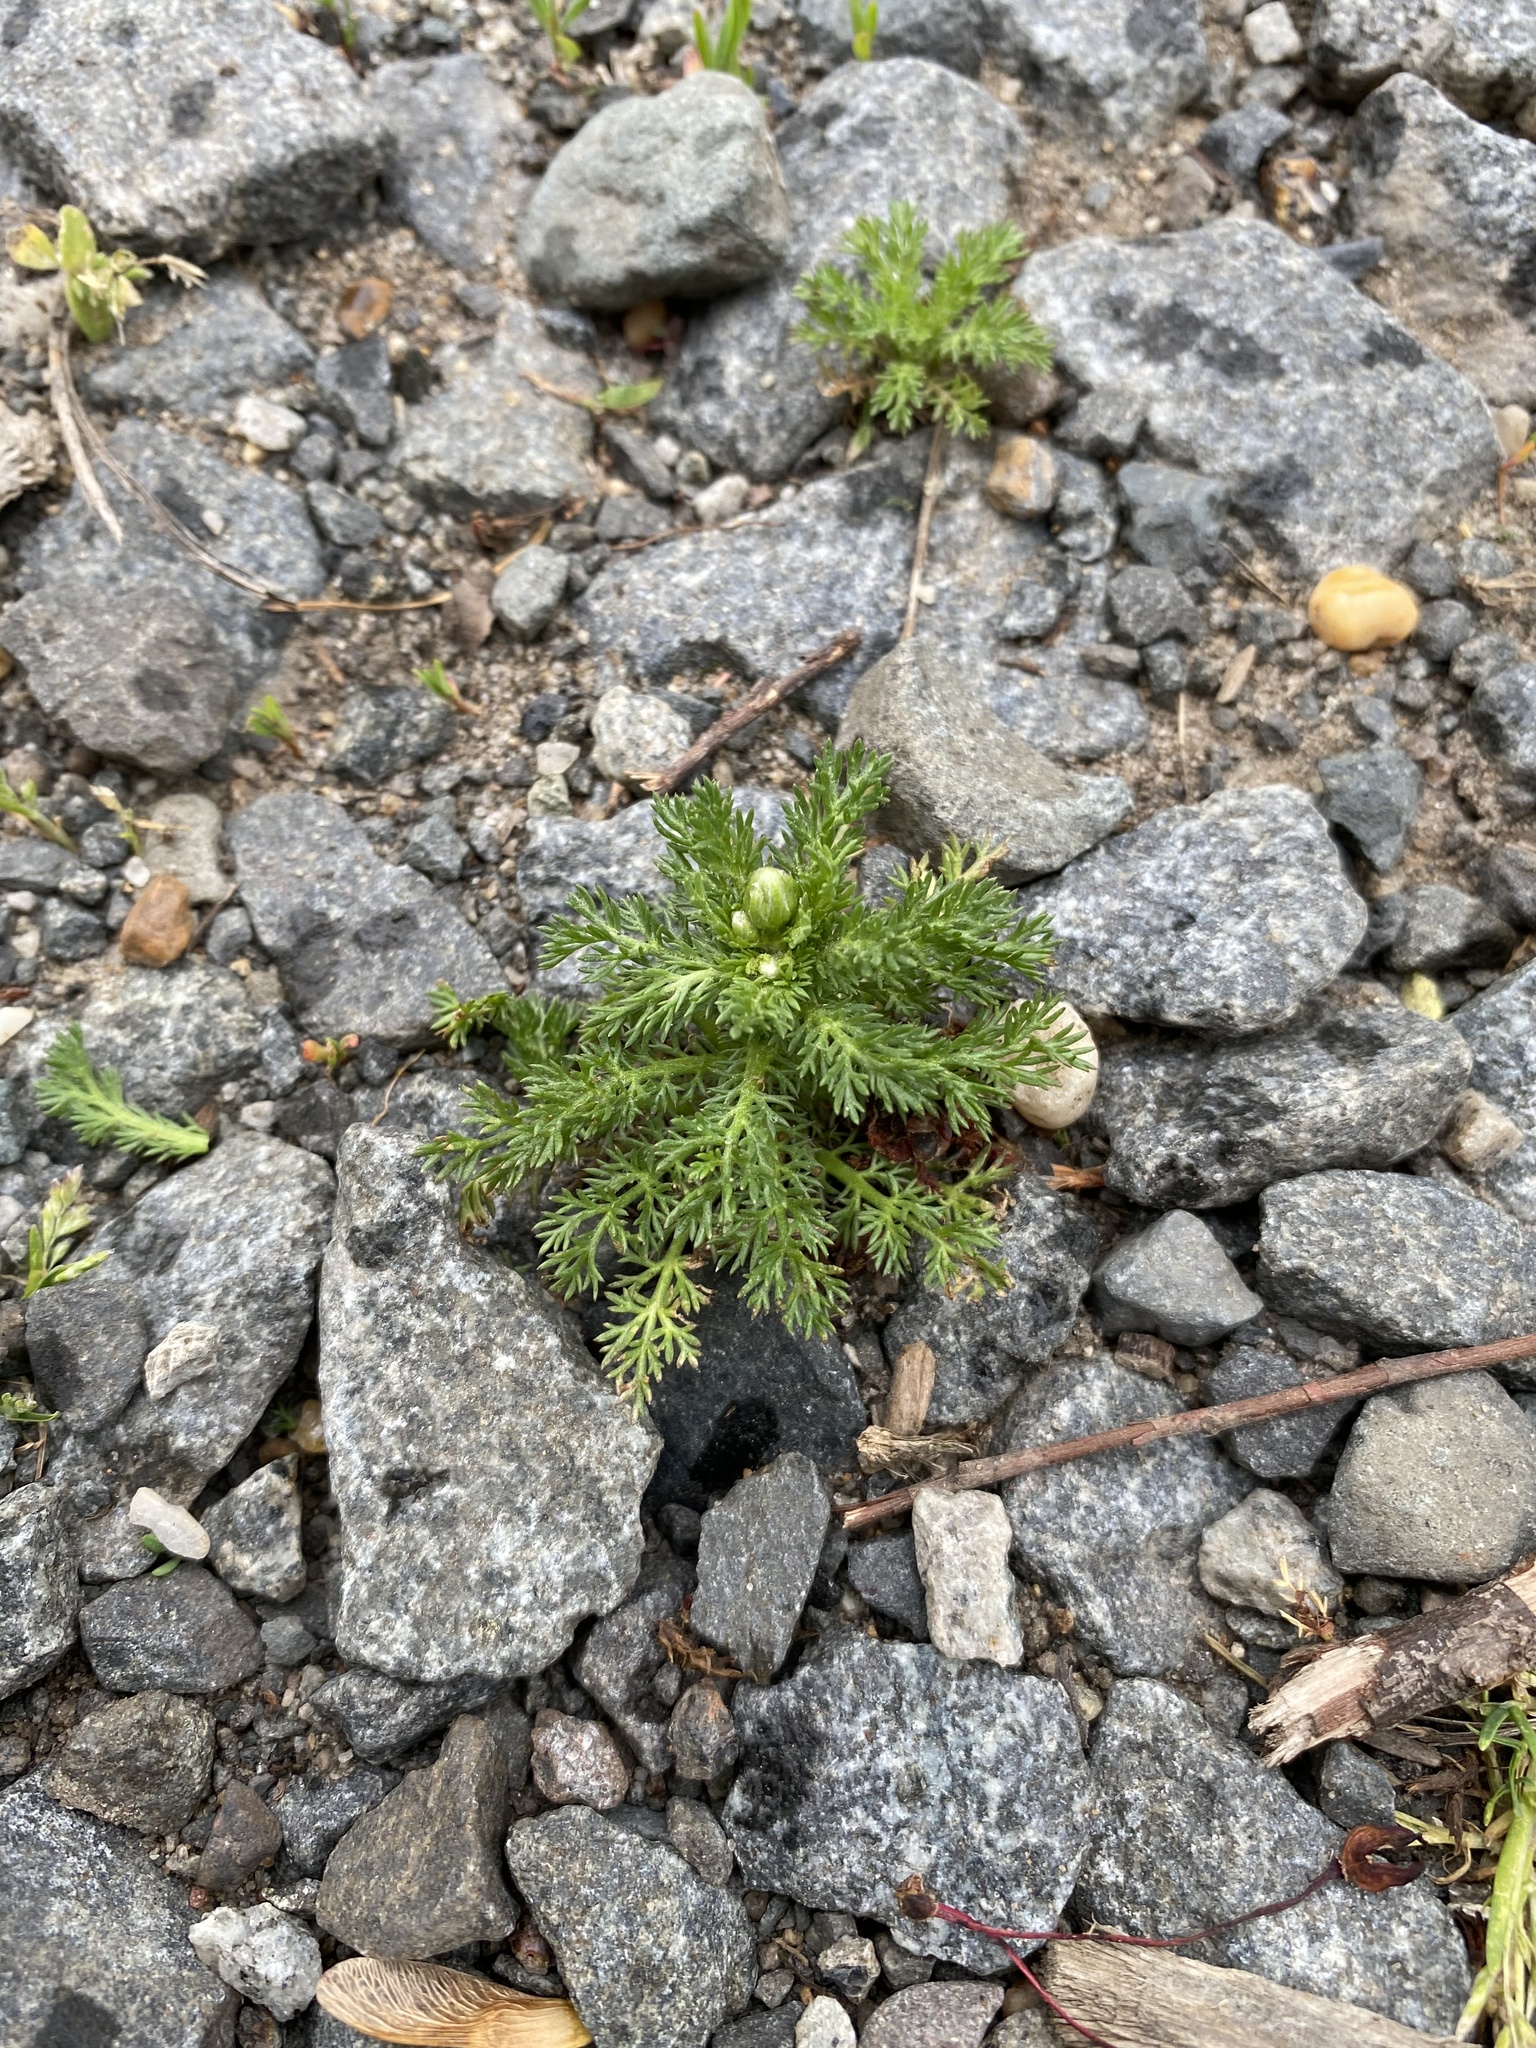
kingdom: Plantae
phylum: Tracheophyta
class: Magnoliopsida
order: Asterales
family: Asteraceae
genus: Matricaria
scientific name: Matricaria discoidea
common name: Disc mayweed
